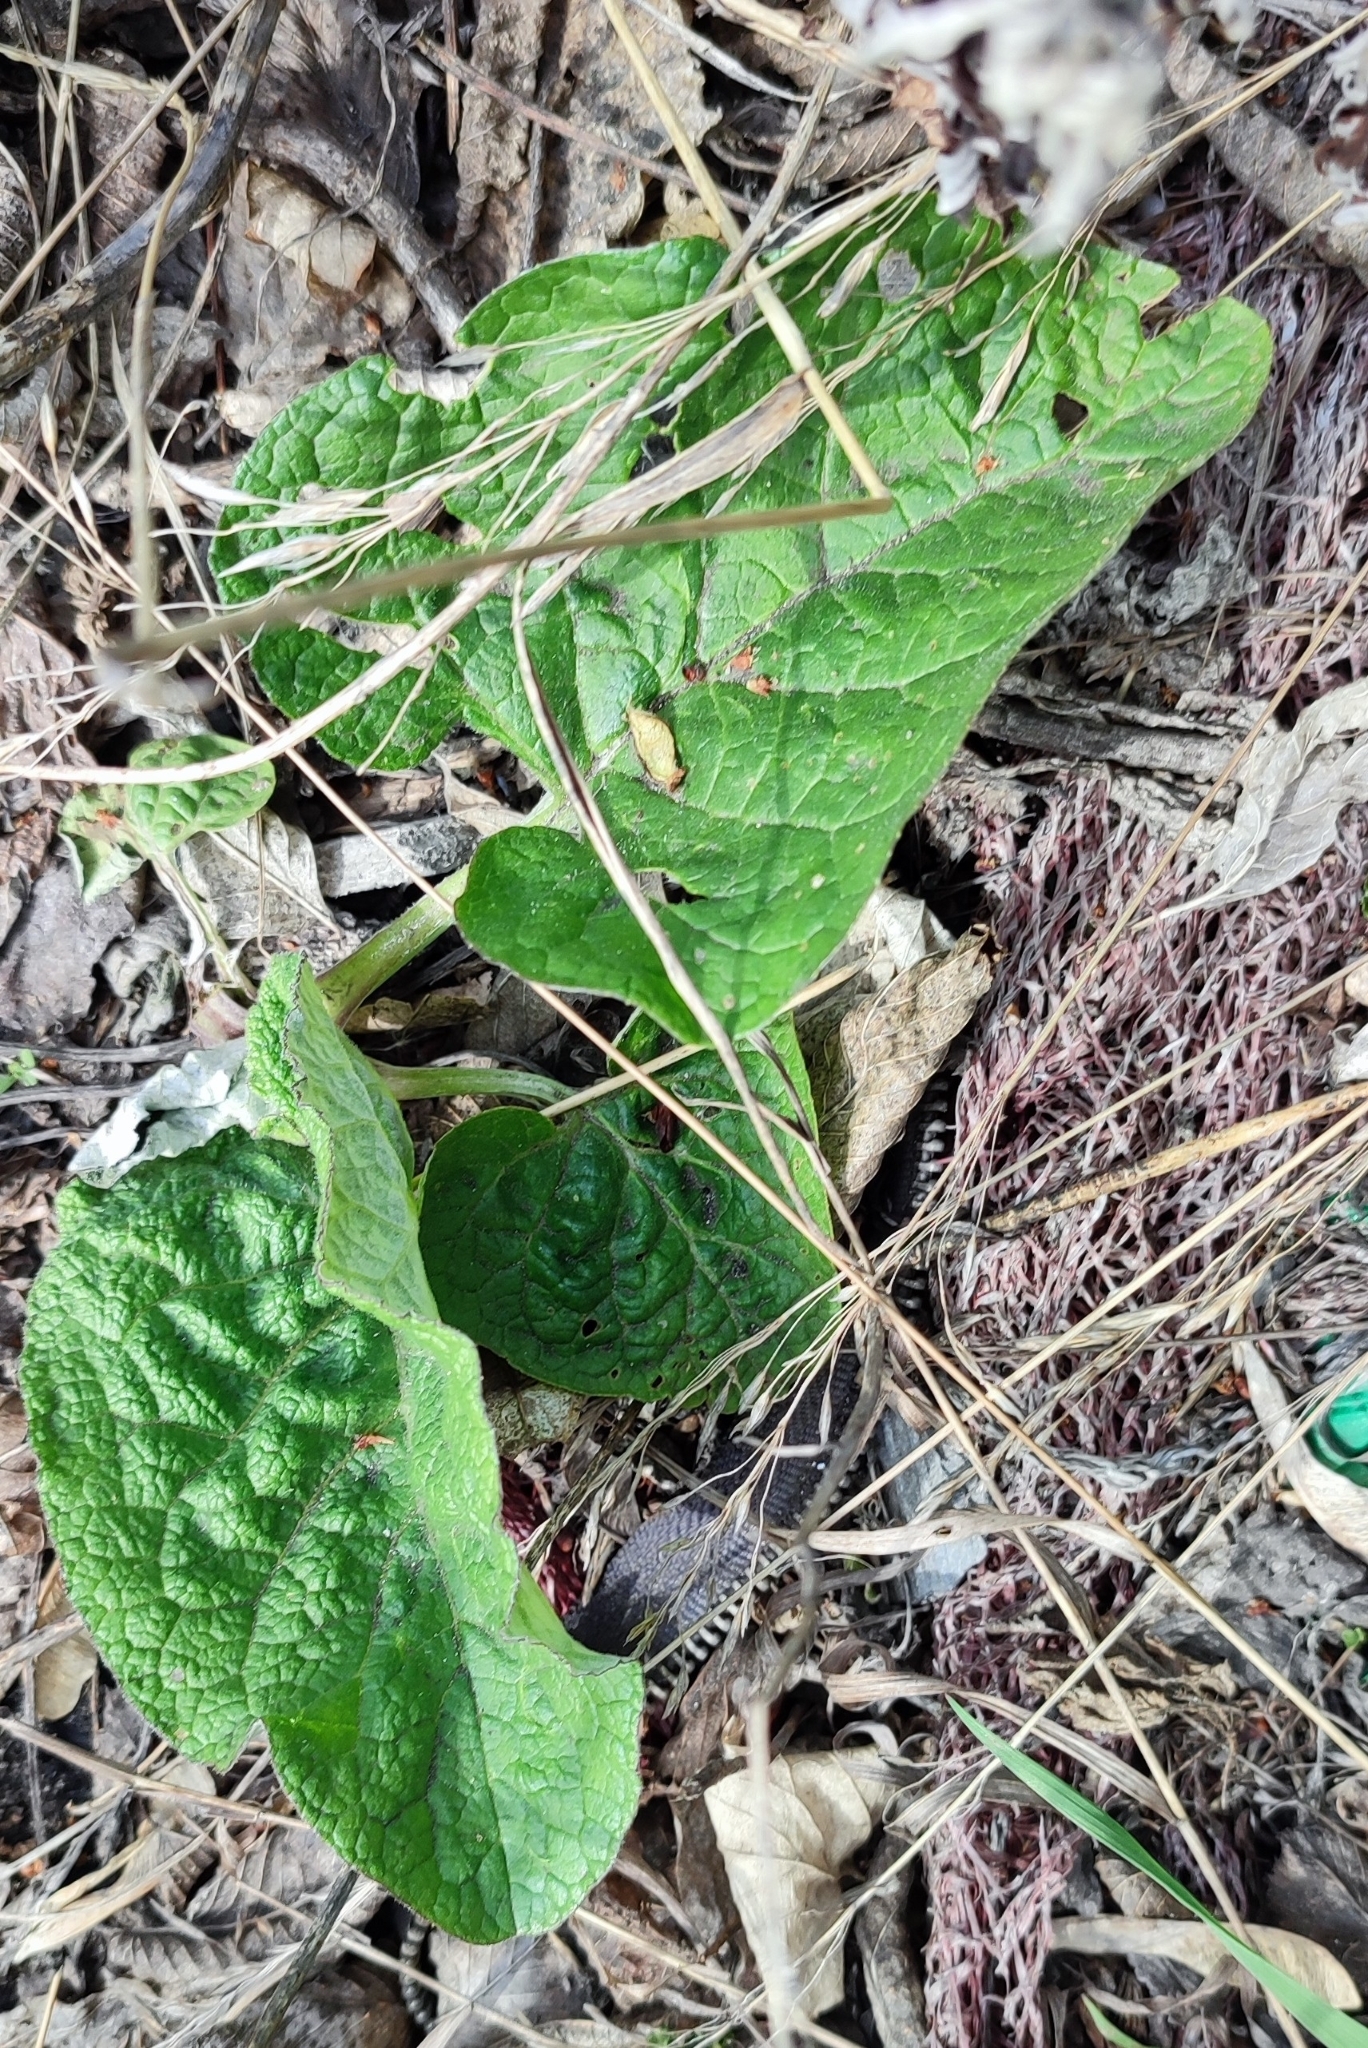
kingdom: Plantae
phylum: Tracheophyta
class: Magnoliopsida
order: Asterales
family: Asteraceae
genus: Arctium
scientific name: Arctium tomentosum
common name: Woolly burdock
